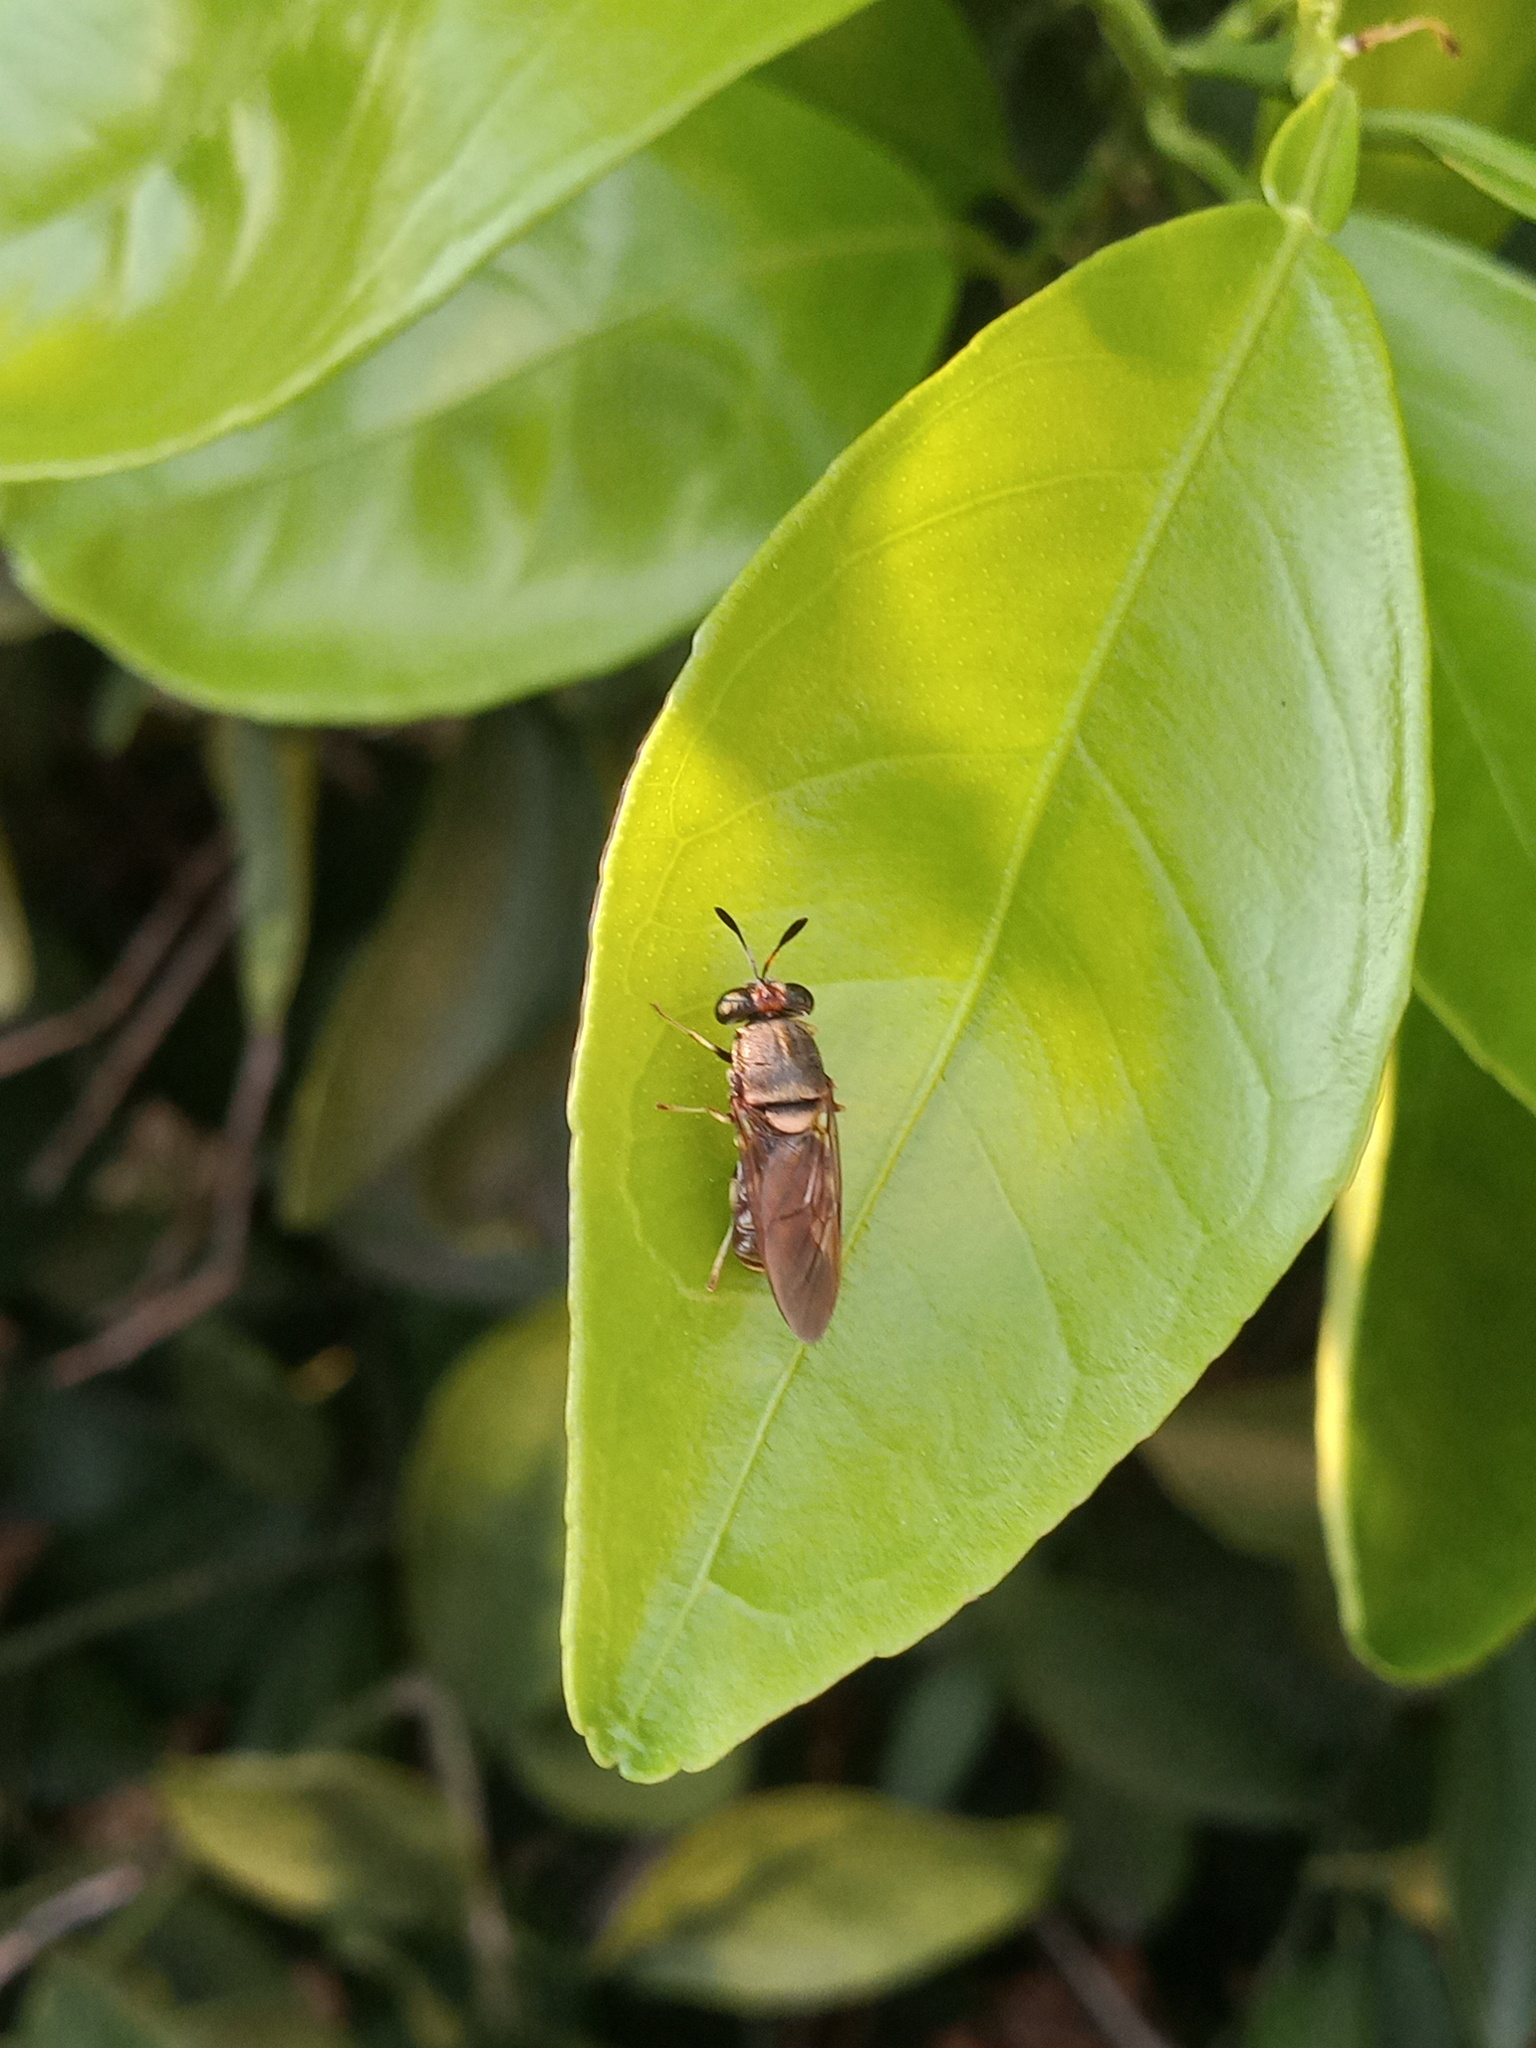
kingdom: Animalia
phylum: Arthropoda
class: Insecta
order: Diptera
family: Stratiomyidae
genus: Hermetia
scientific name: Hermetia chrysopila
